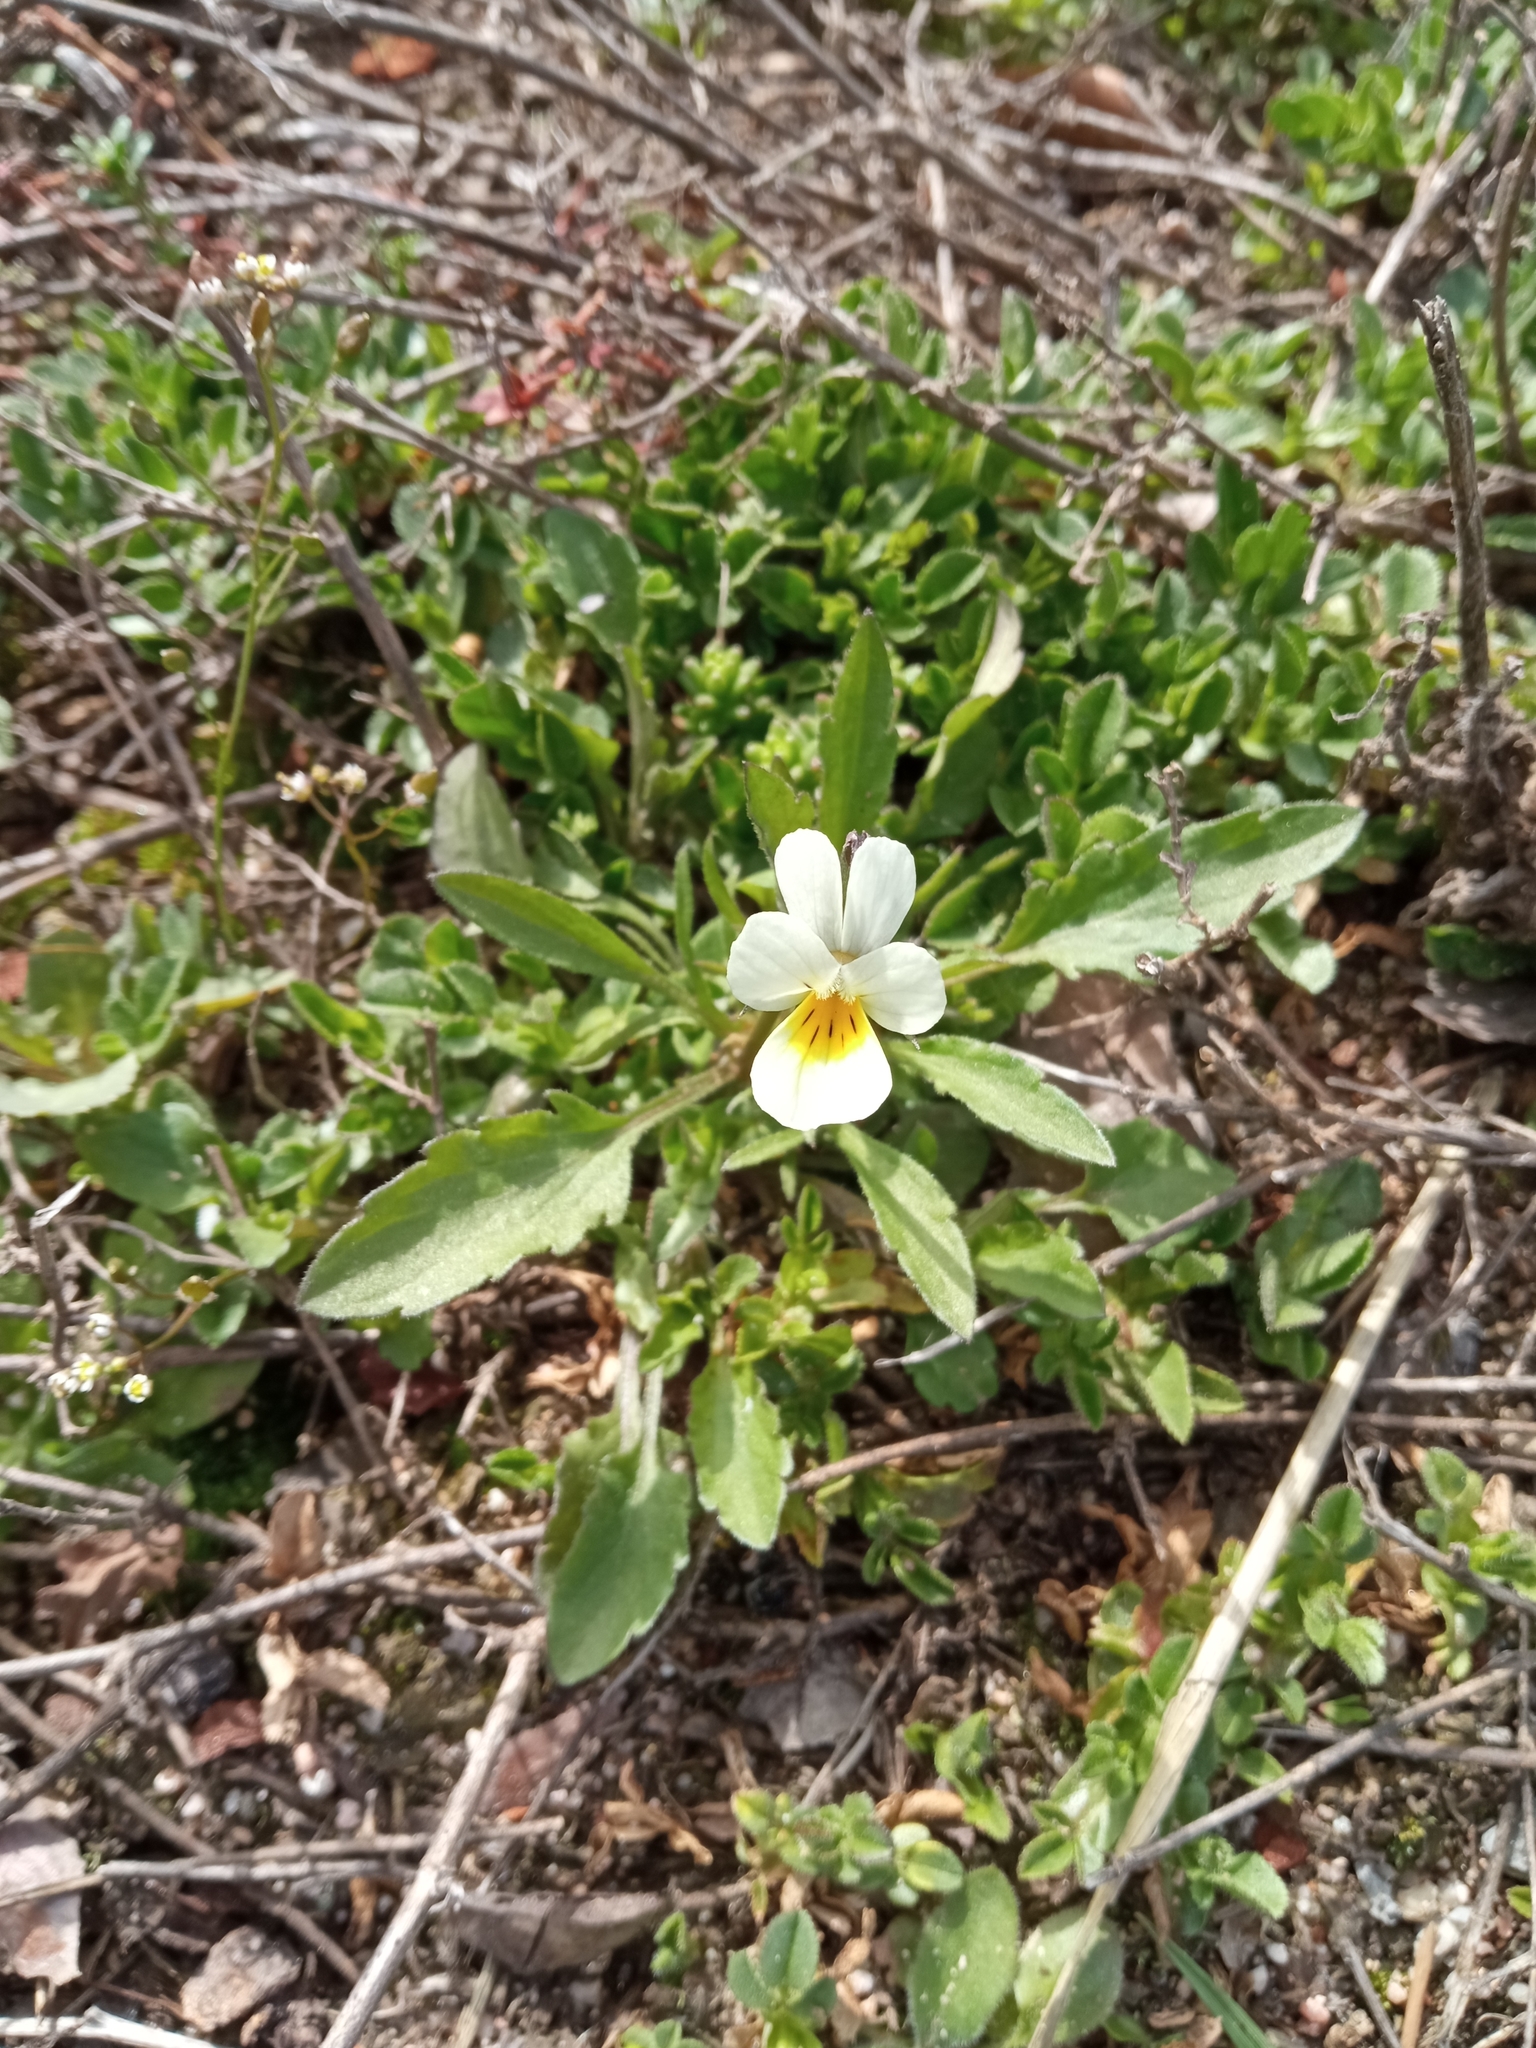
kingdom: Plantae
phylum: Tracheophyta
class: Magnoliopsida
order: Malpighiales
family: Violaceae
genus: Viola
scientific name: Viola arvensis
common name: Field pansy
